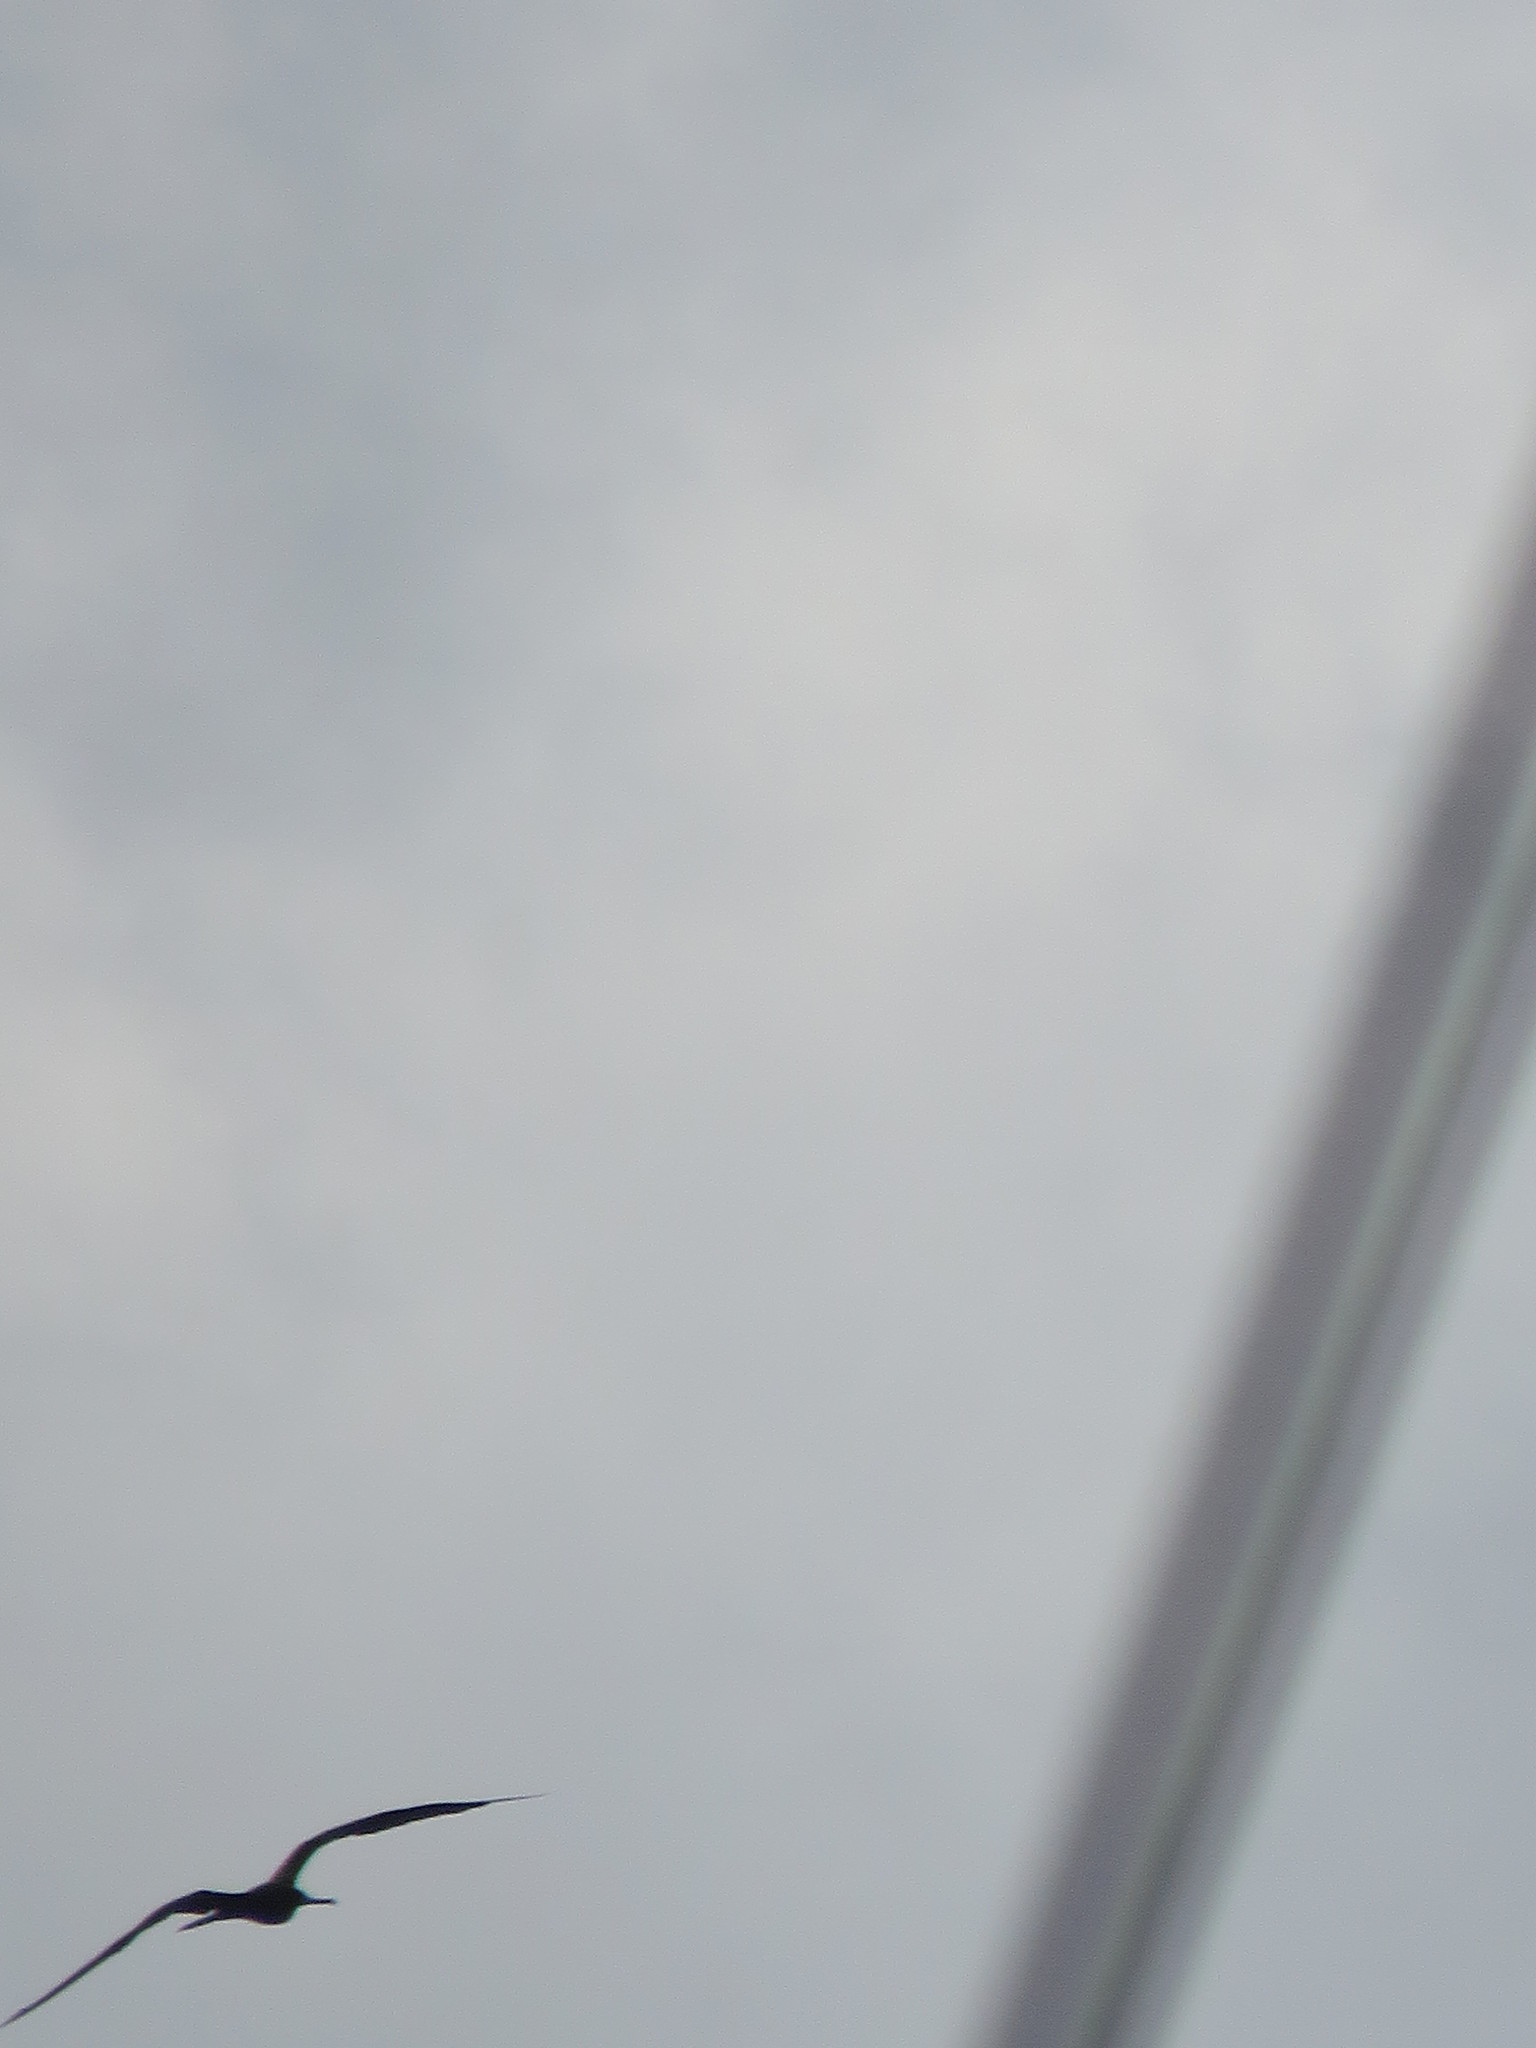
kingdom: Animalia
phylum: Chordata
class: Aves
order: Suliformes
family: Fregatidae
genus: Fregata
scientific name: Fregata magnificens
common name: Magnificent frigatebird
